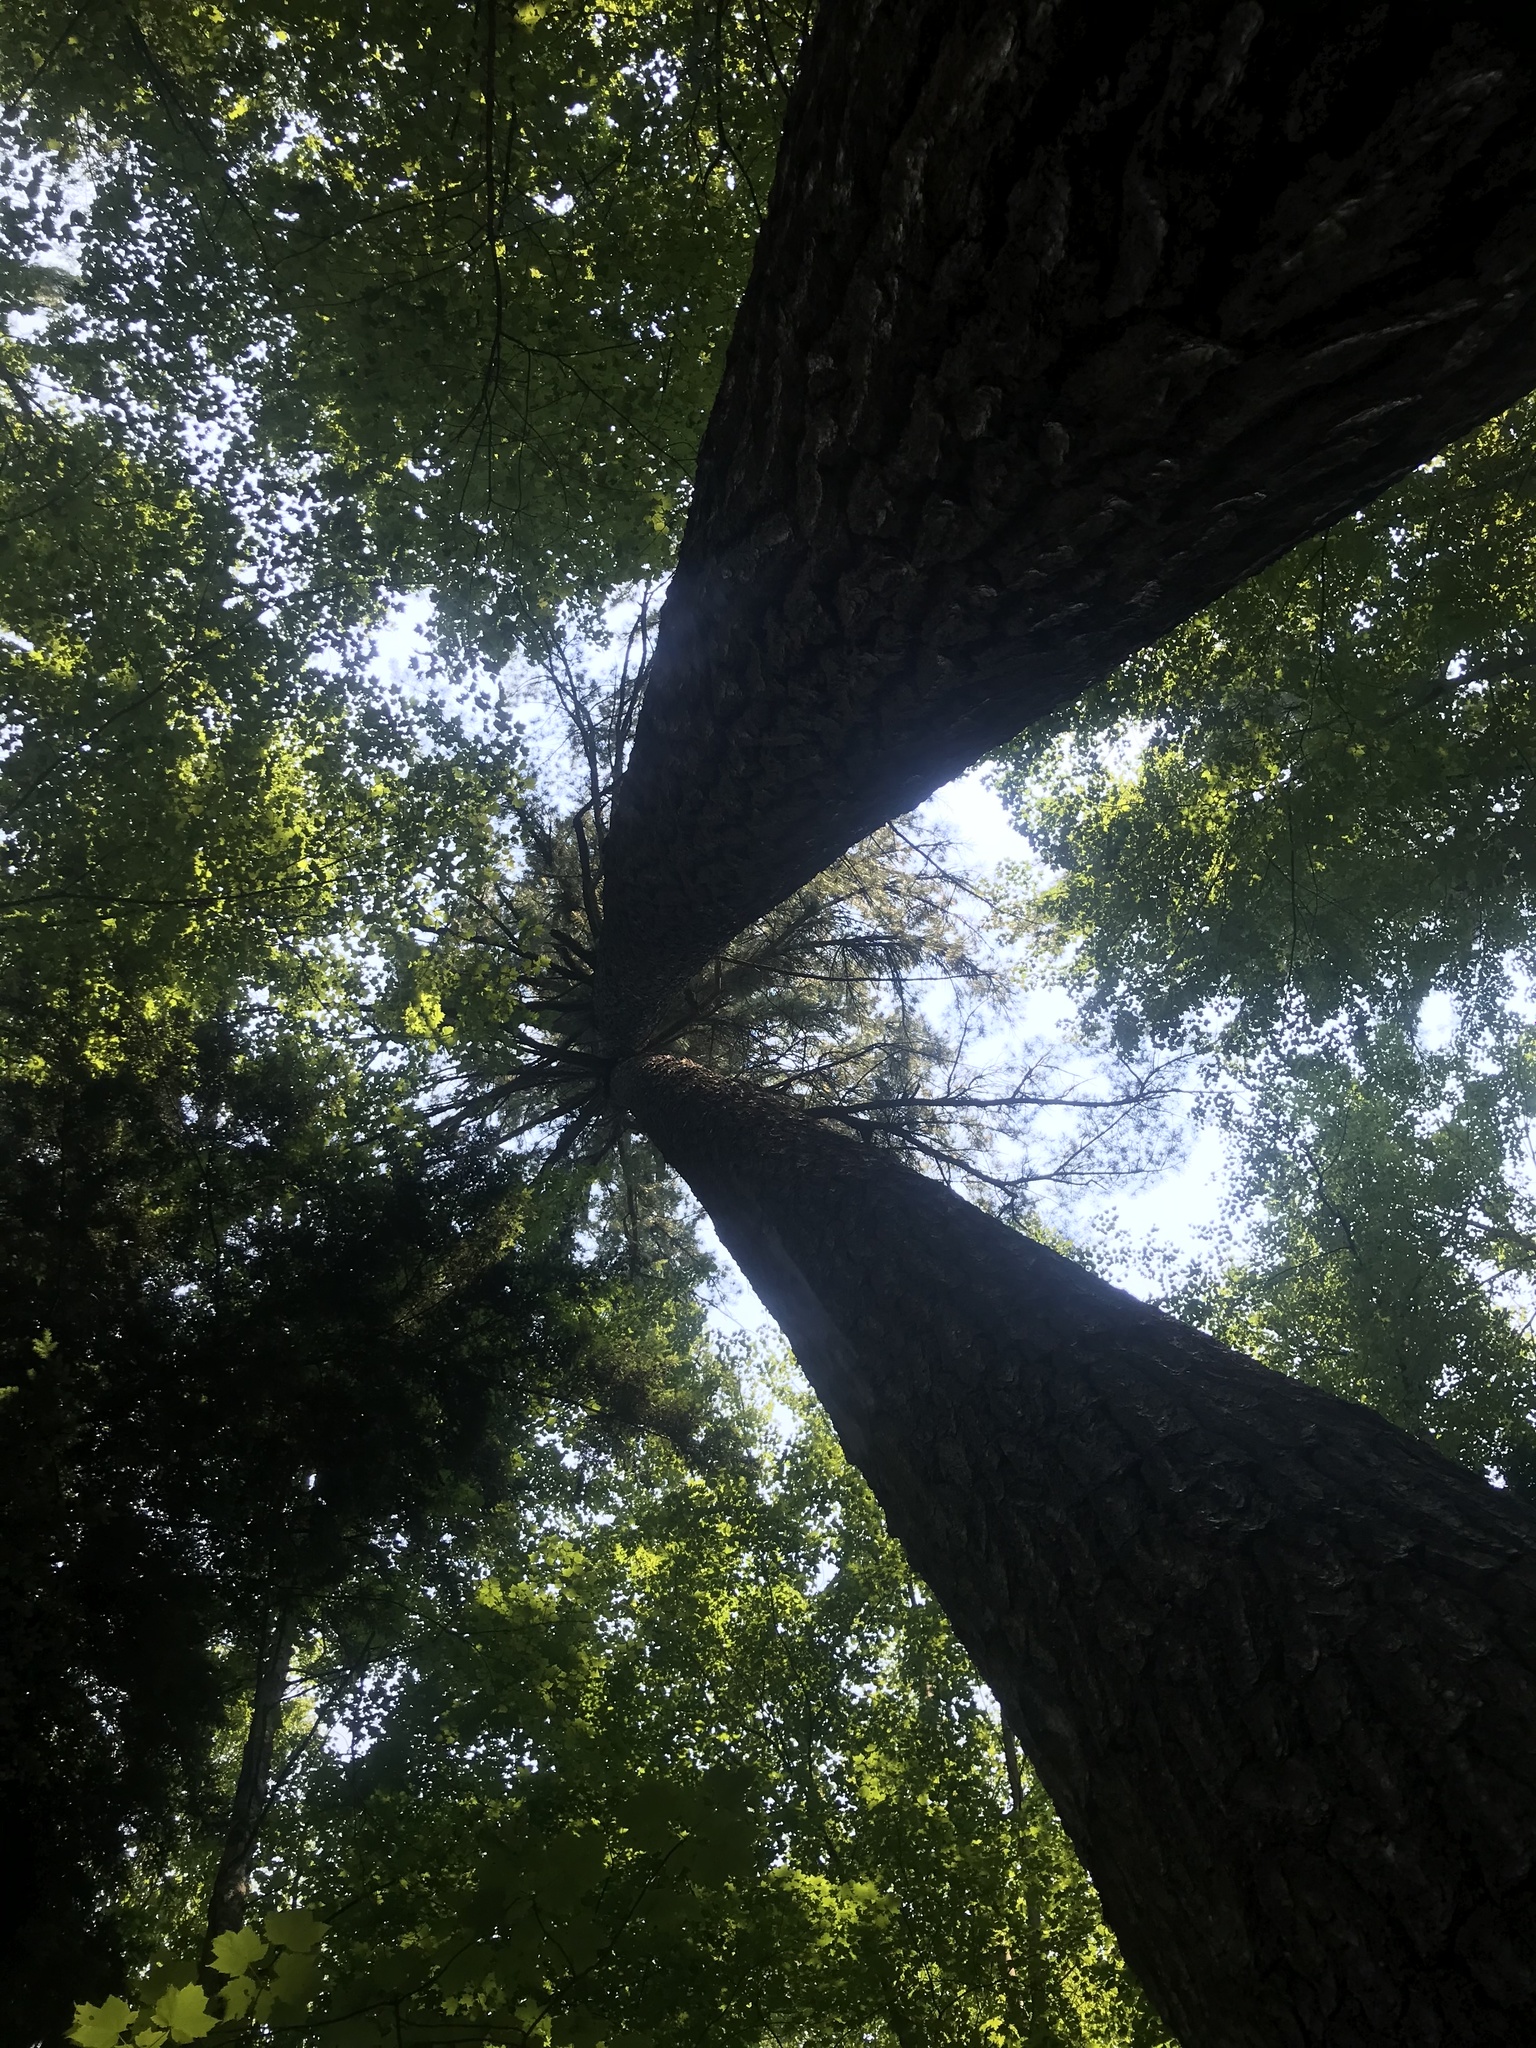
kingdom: Plantae
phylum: Tracheophyta
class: Pinopsida
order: Pinales
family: Pinaceae
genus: Pinus
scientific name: Pinus strobus
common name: Weymouth pine
